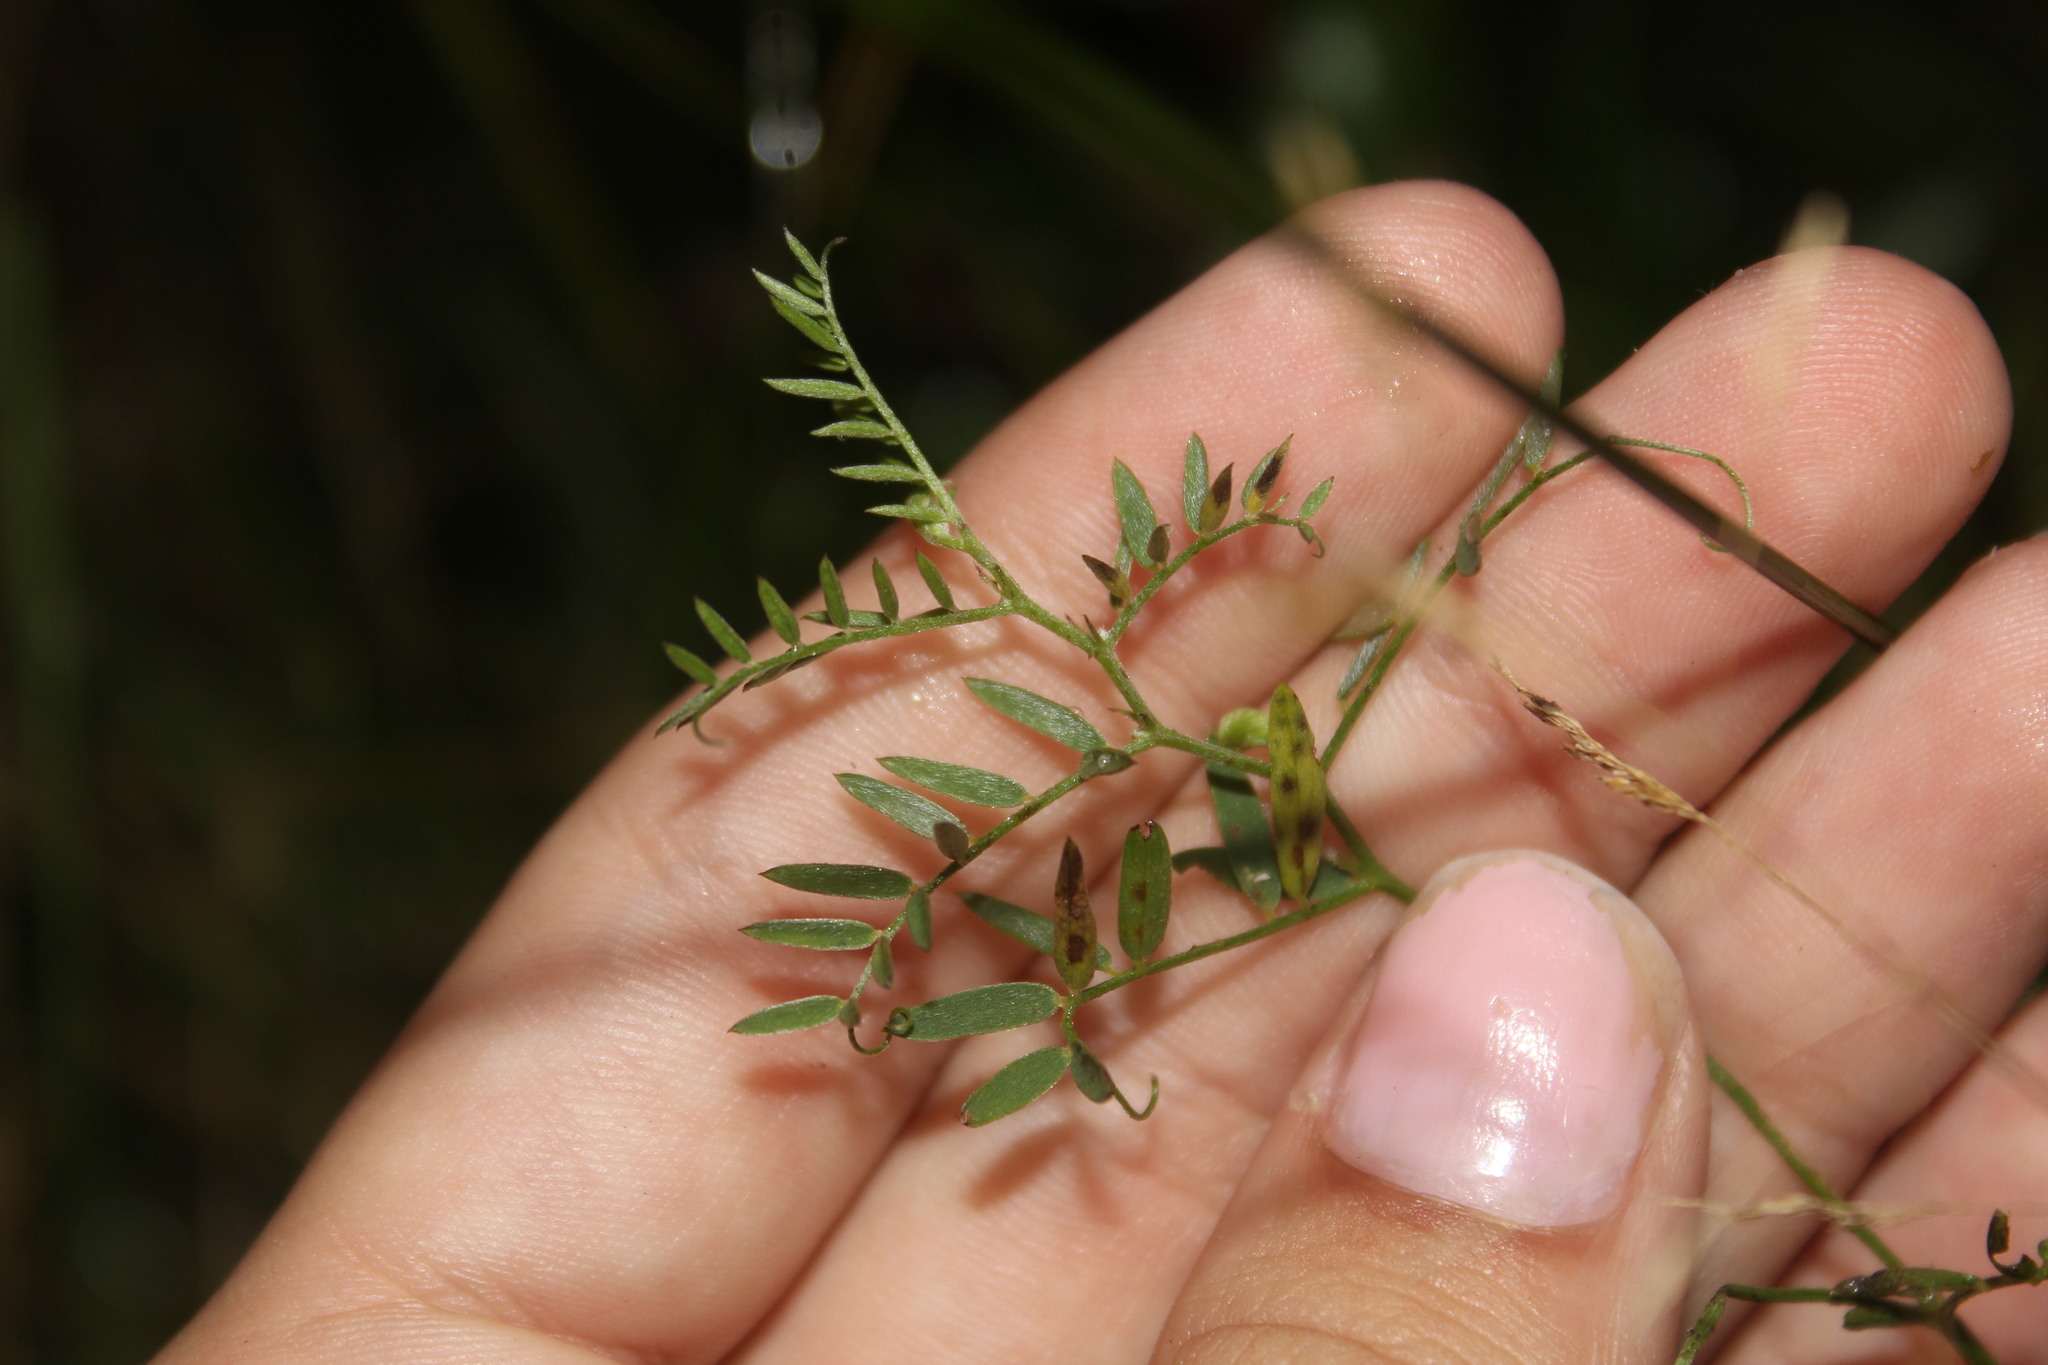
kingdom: Plantae
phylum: Tracheophyta
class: Magnoliopsida
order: Fabales
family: Fabaceae
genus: Vicia
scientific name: Vicia cracca
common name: Bird vetch
